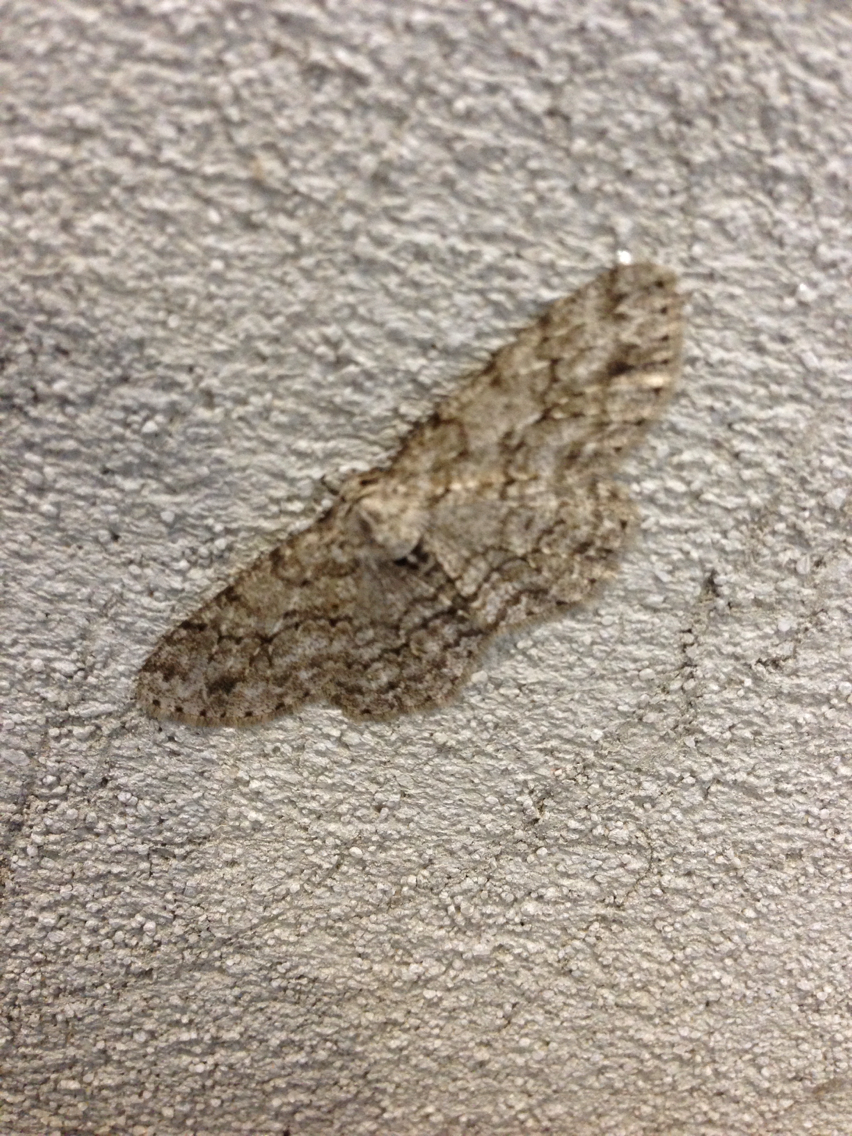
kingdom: Animalia
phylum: Arthropoda
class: Insecta
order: Lepidoptera
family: Geometridae
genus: Ectropis
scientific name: Ectropis crepuscularia
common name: Engrailed
